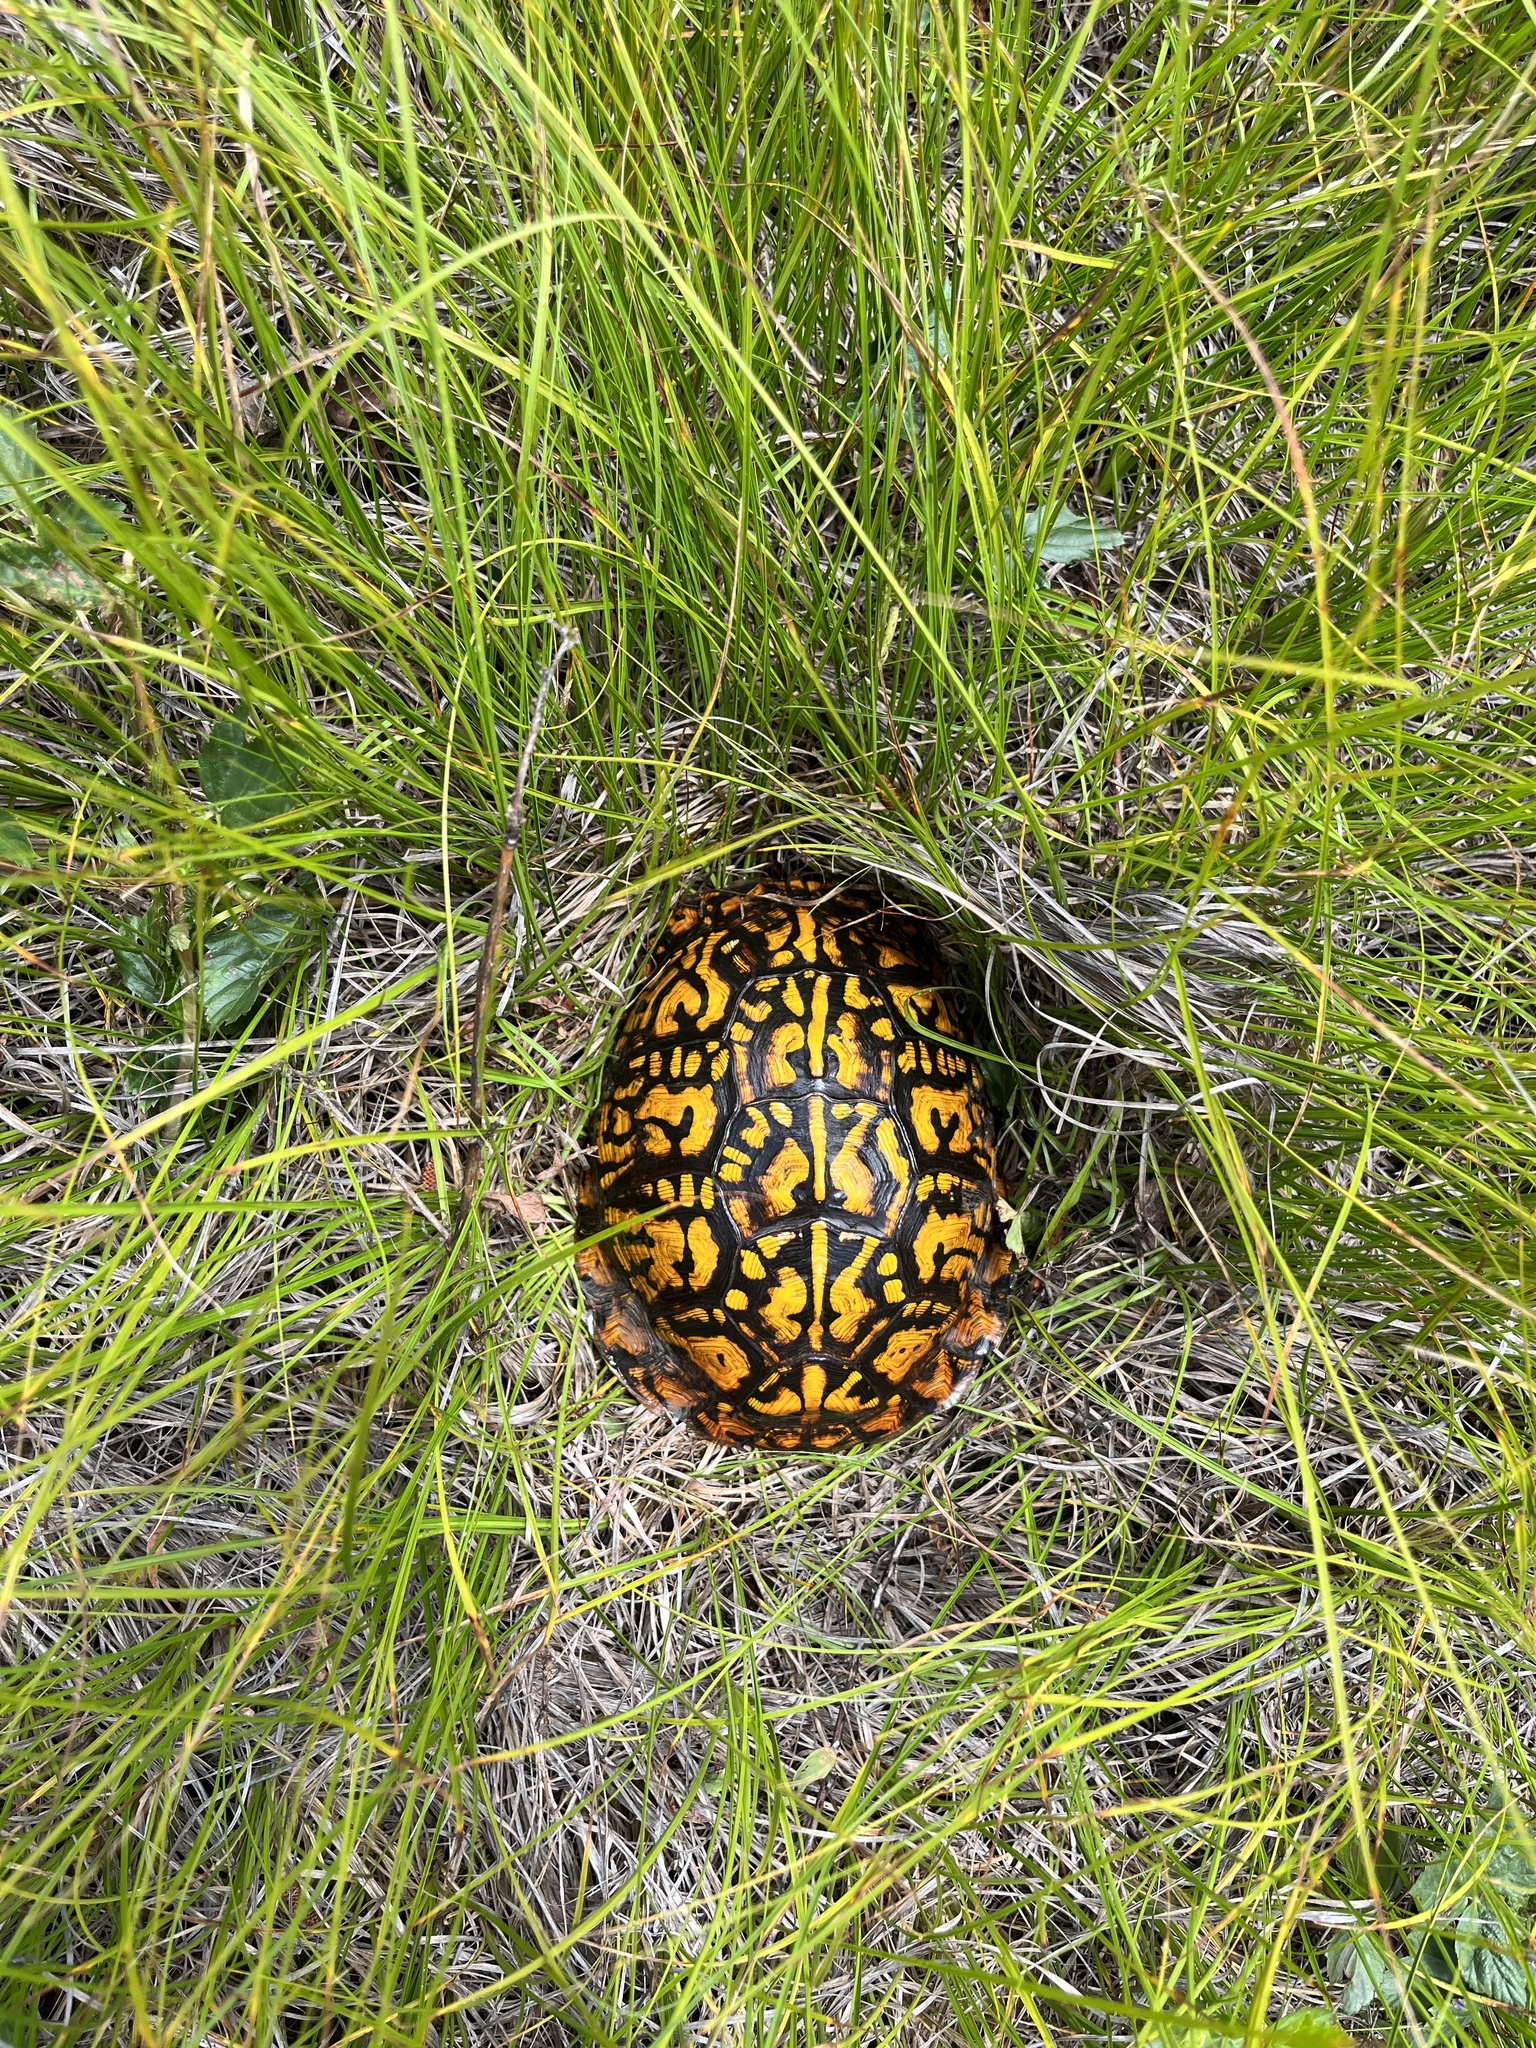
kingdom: Animalia
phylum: Chordata
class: Testudines
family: Emydidae
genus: Terrapene
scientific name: Terrapene carolina
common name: Common box turtle
